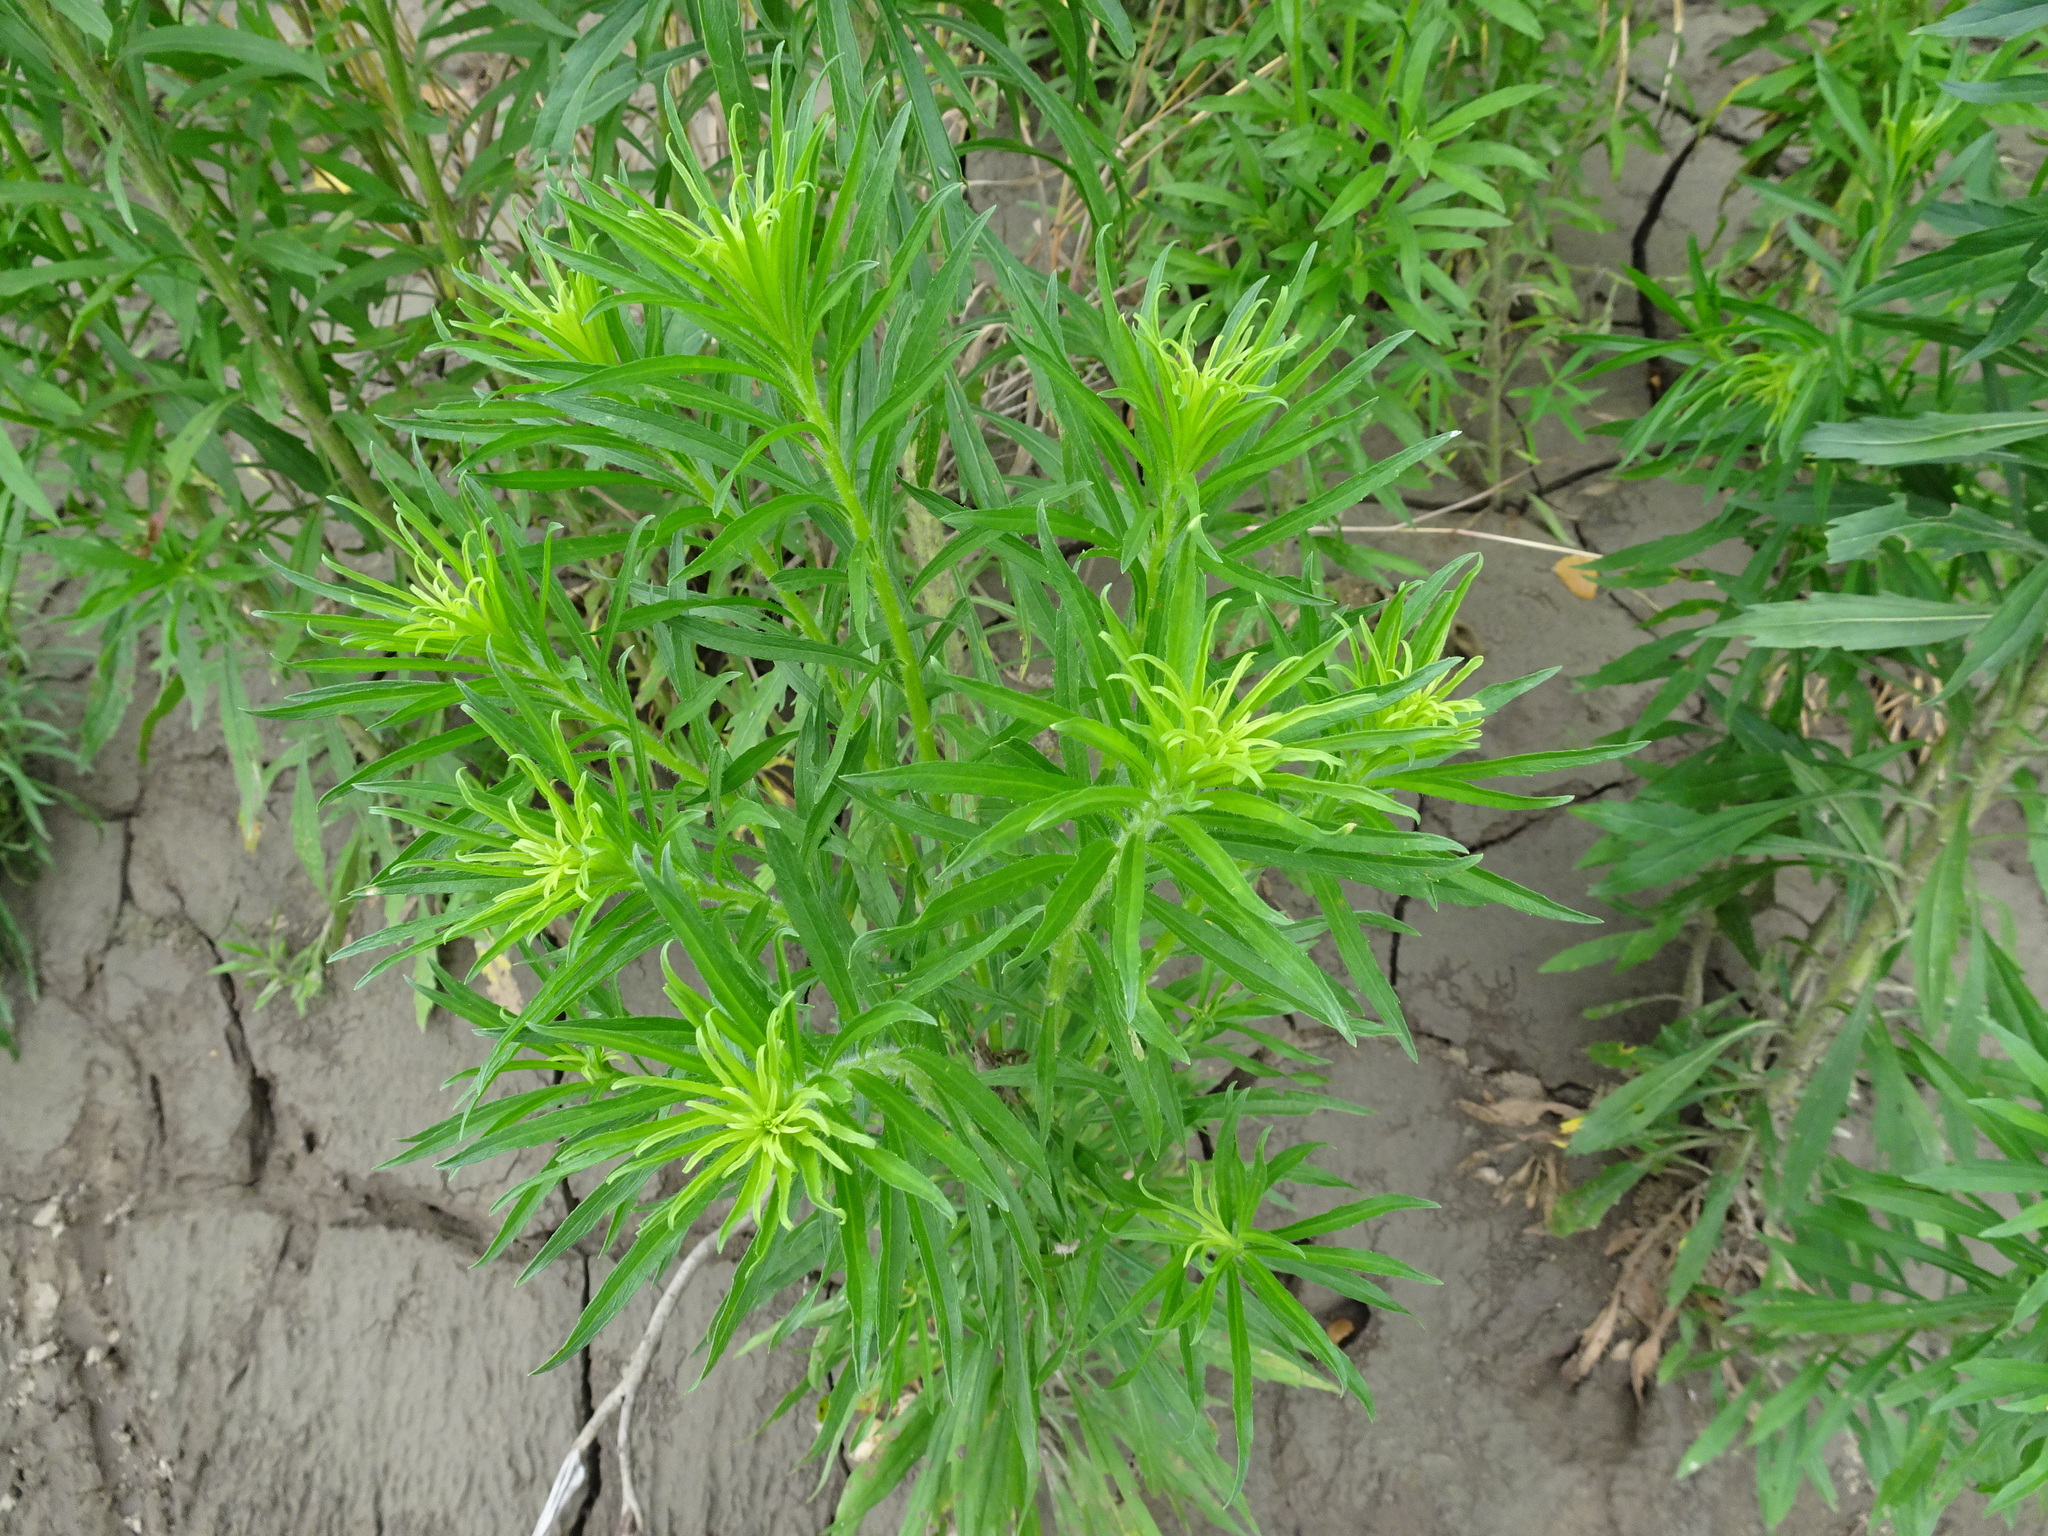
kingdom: Plantae
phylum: Tracheophyta
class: Magnoliopsida
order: Asterales
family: Asteraceae
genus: Erigeron
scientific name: Erigeron canadensis
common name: Canadian fleabane
